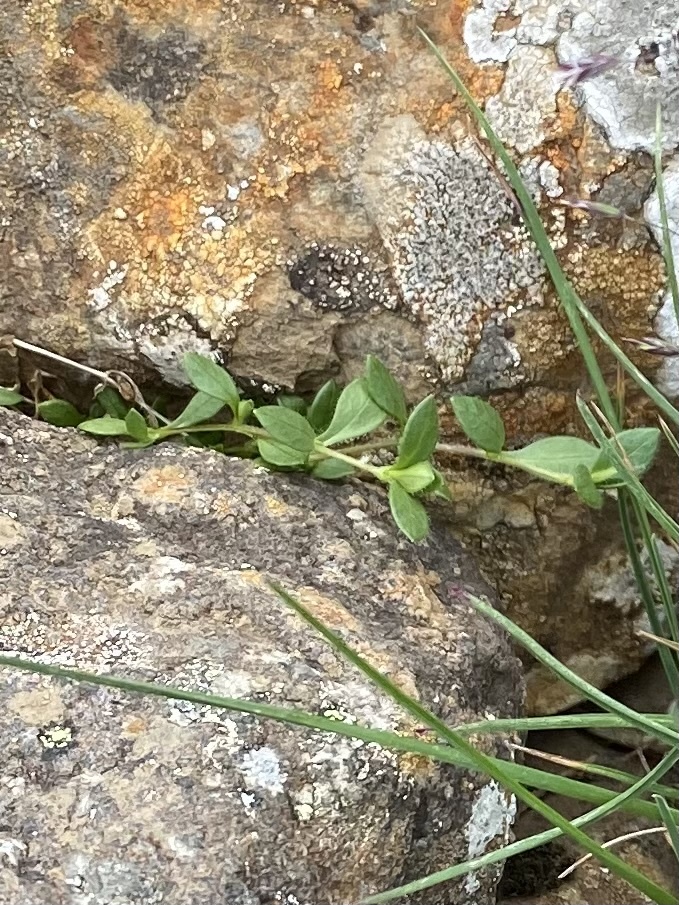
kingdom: Plantae
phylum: Tracheophyta
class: Magnoliopsida
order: Caryophyllales
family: Caryophyllaceae
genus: Cerastium
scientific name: Cerastium regelii
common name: Regel's chickweed
